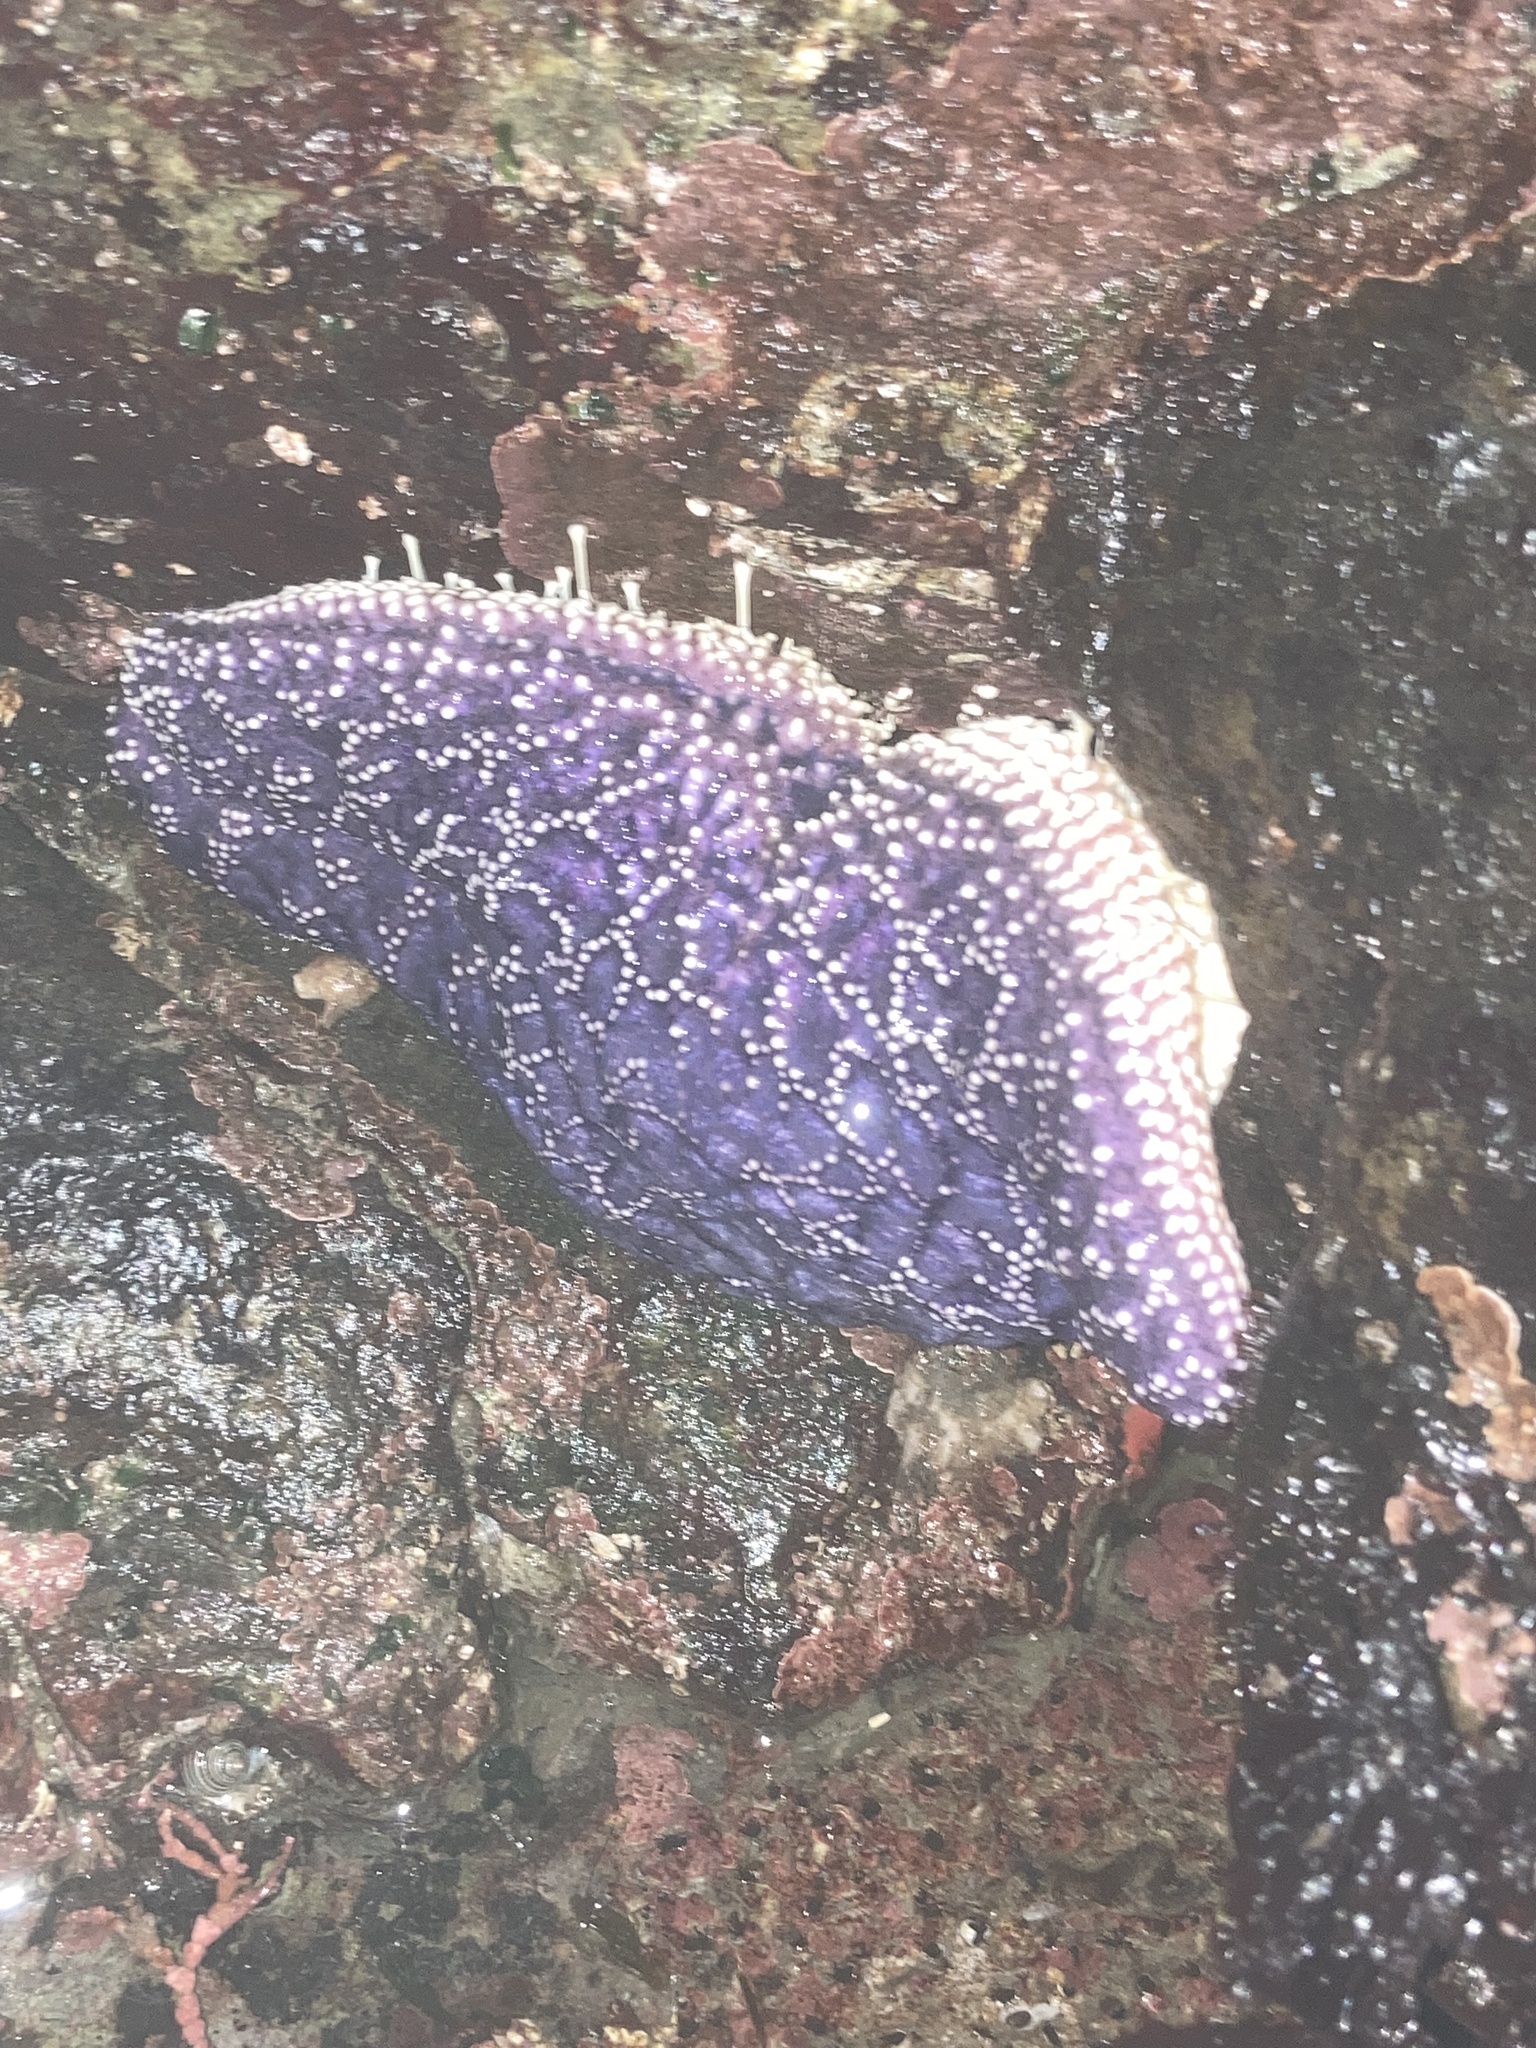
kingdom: Animalia
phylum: Echinodermata
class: Asteroidea
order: Forcipulatida
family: Asteriidae
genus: Pisaster
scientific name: Pisaster ochraceus
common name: Ochre stars
